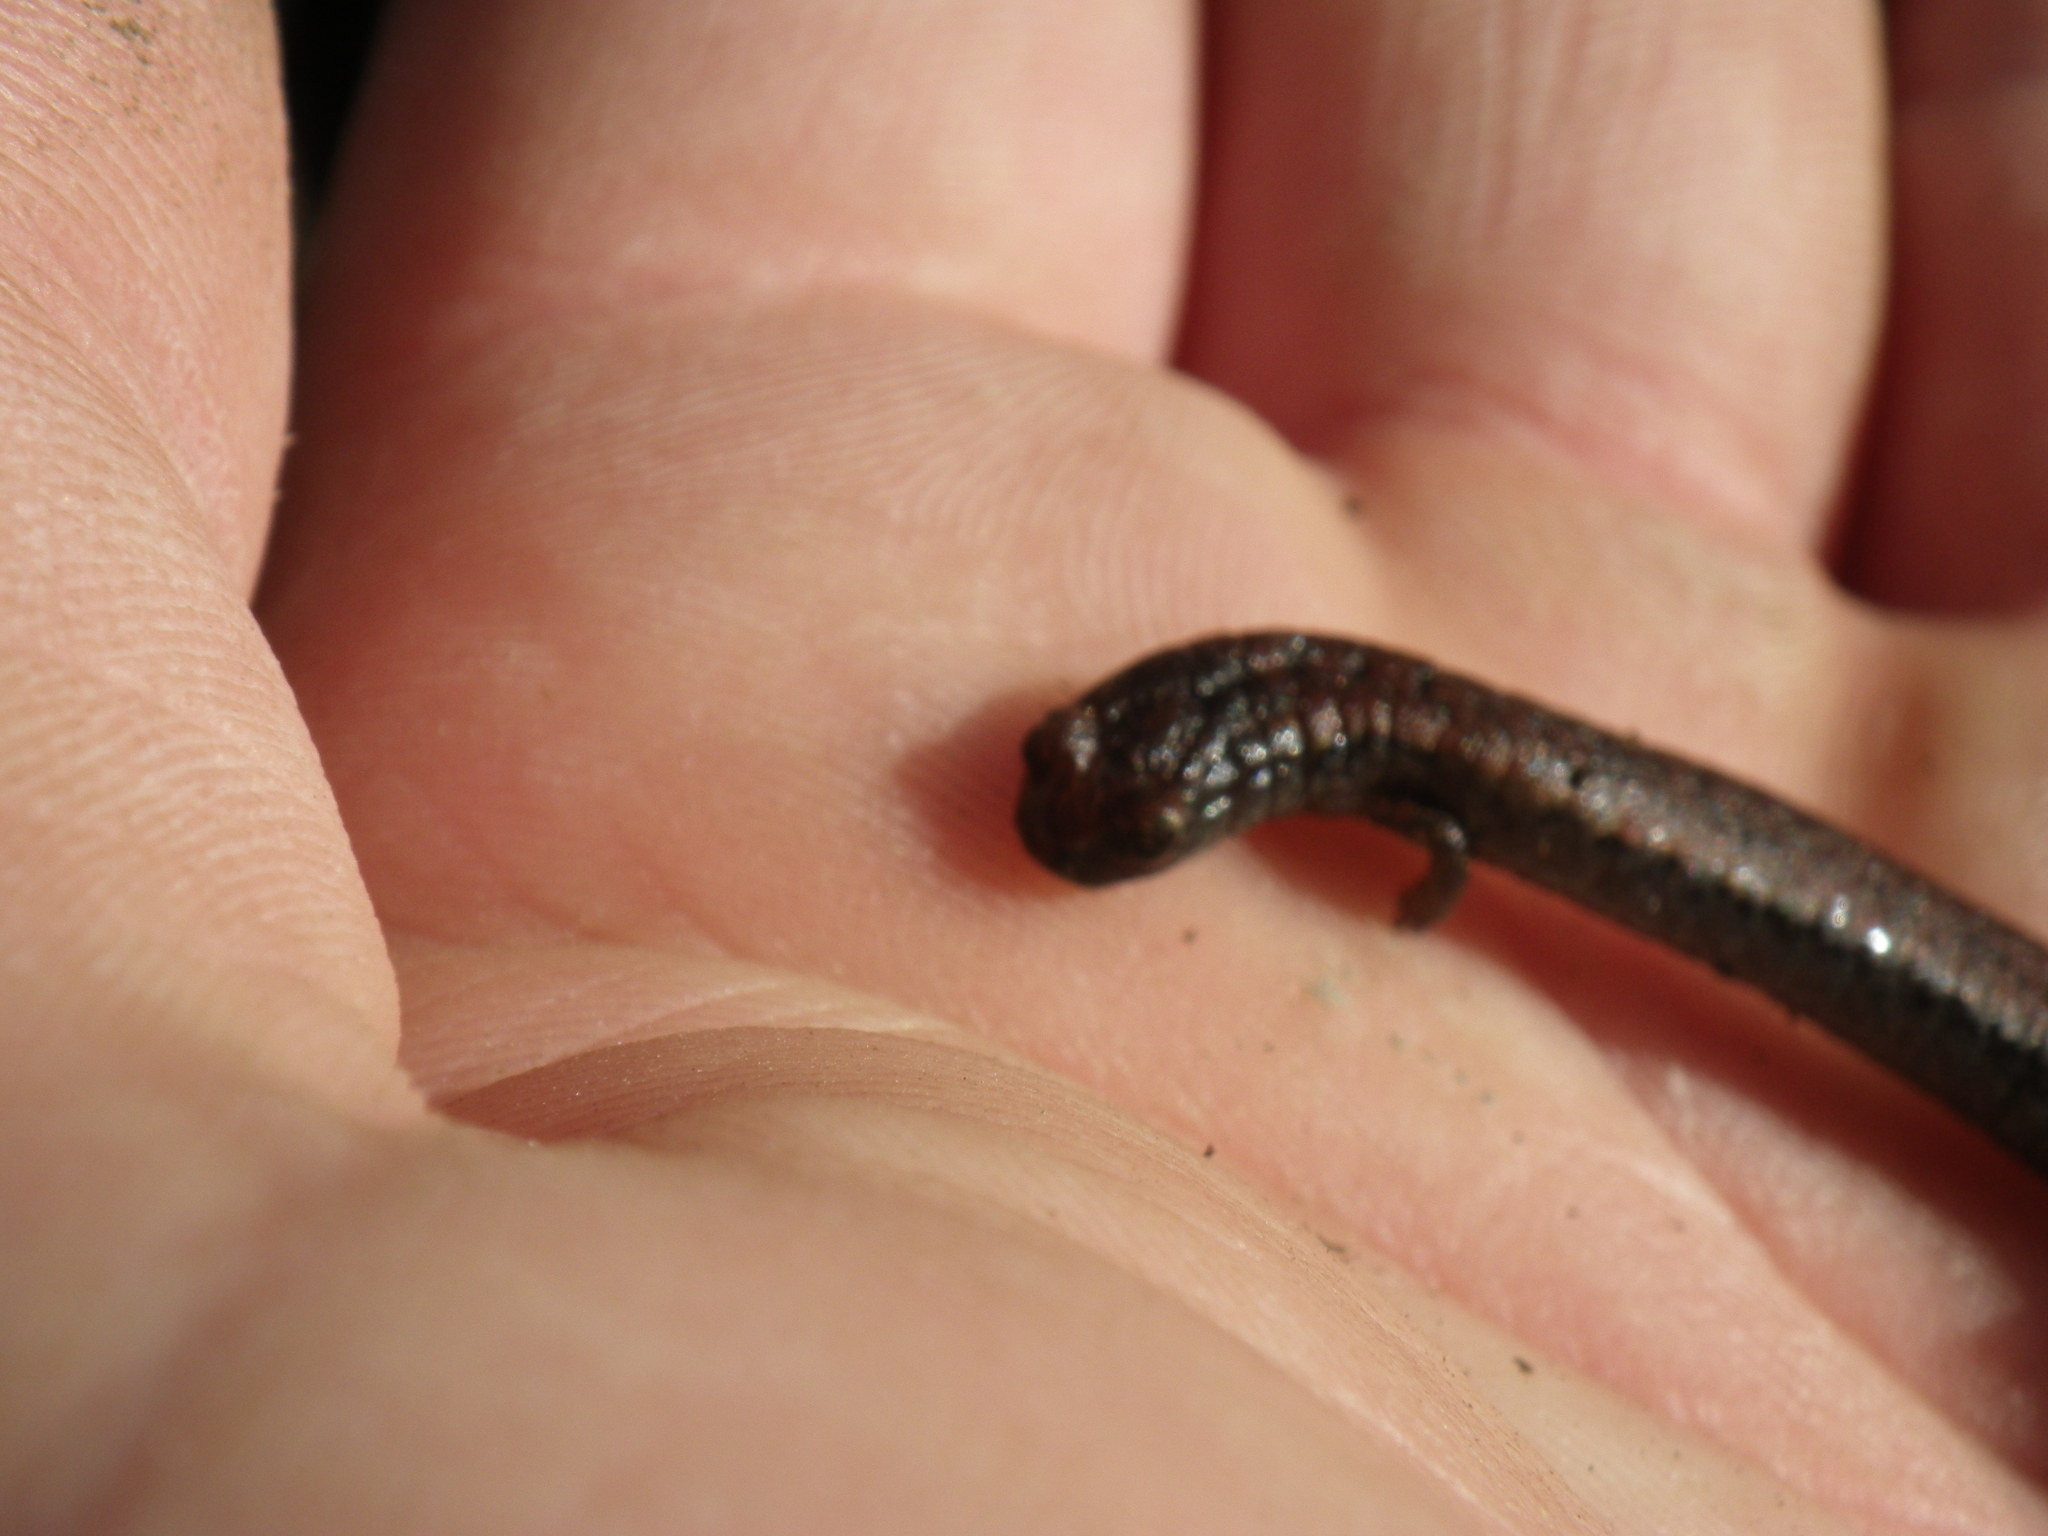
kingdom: Animalia
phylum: Chordata
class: Amphibia
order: Caudata
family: Plethodontidae
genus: Batrachoseps
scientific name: Batrachoseps attenuatus
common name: California slender salamander
